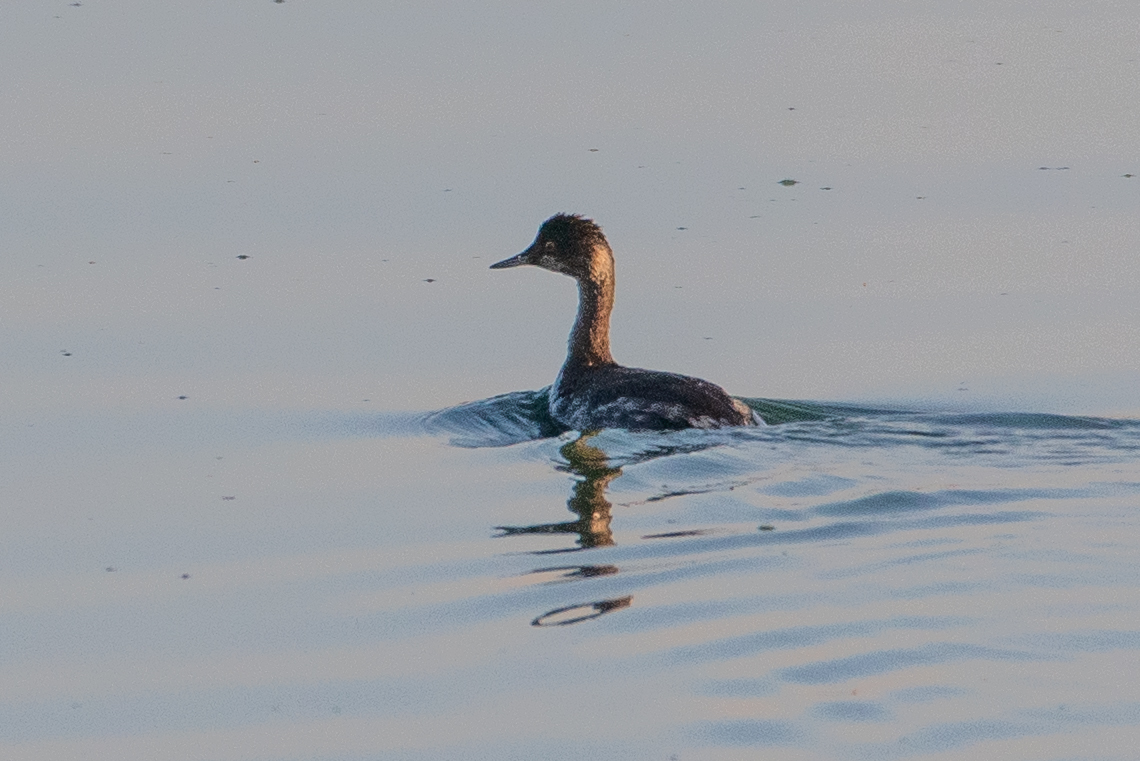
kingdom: Animalia
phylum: Chordata
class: Aves
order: Podicipediformes
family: Podicipedidae
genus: Podiceps
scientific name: Podiceps nigricollis
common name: Black-necked grebe
